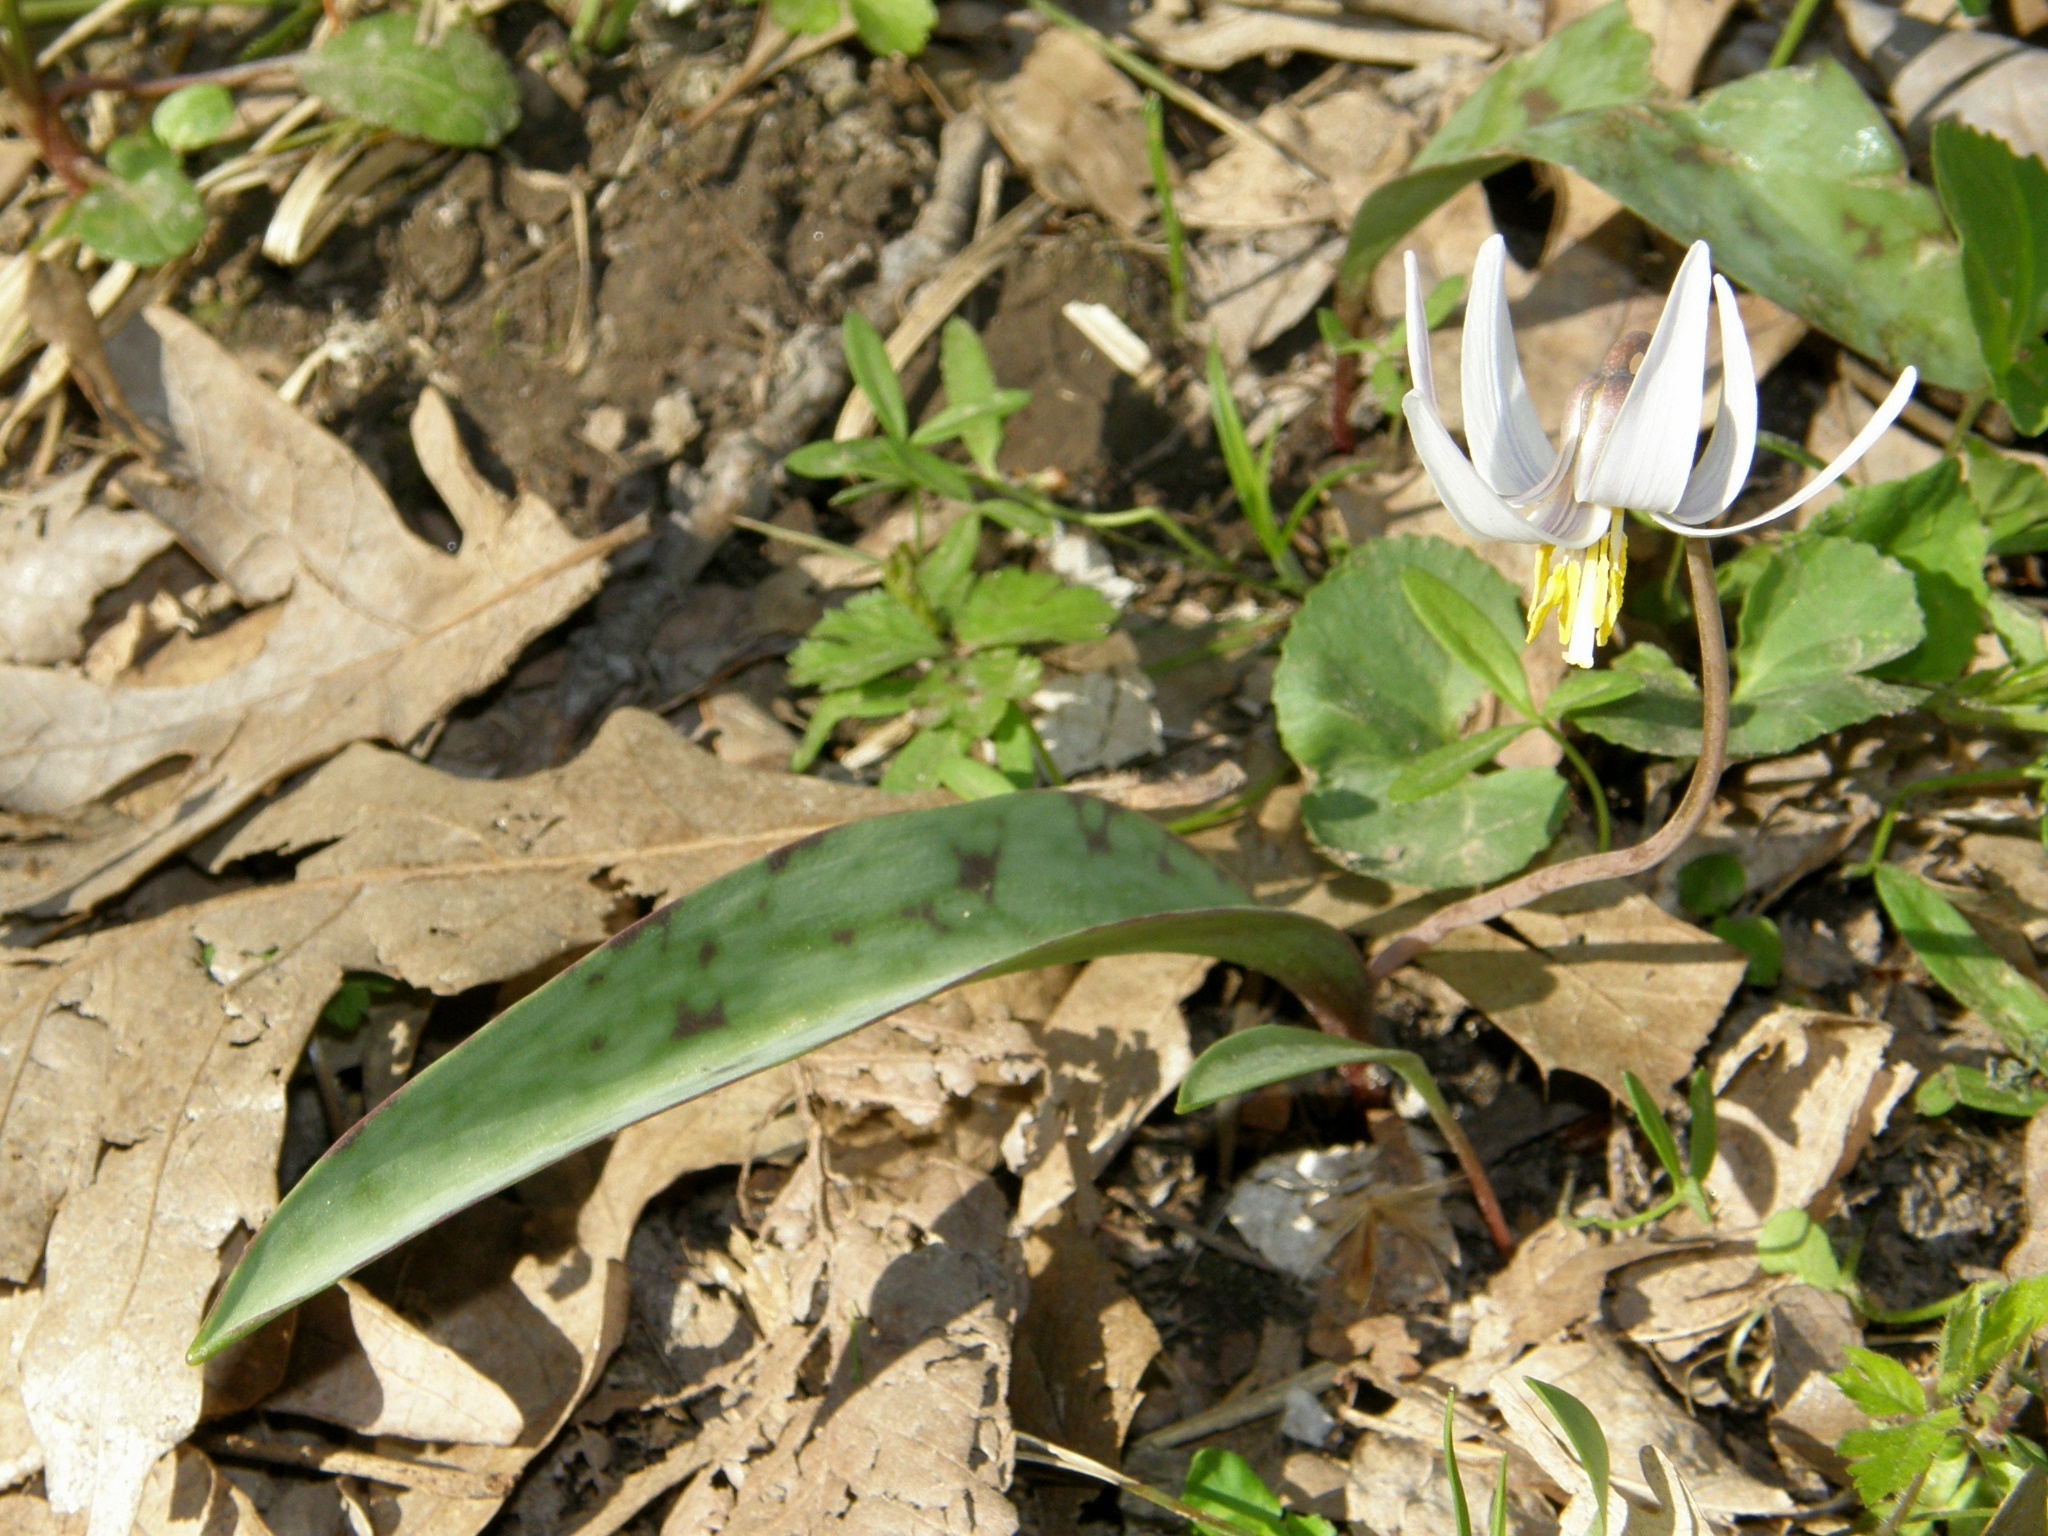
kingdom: Plantae
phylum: Tracheophyta
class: Liliopsida
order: Liliales
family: Liliaceae
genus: Erythronium
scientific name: Erythronium albidum
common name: White trout-lily
